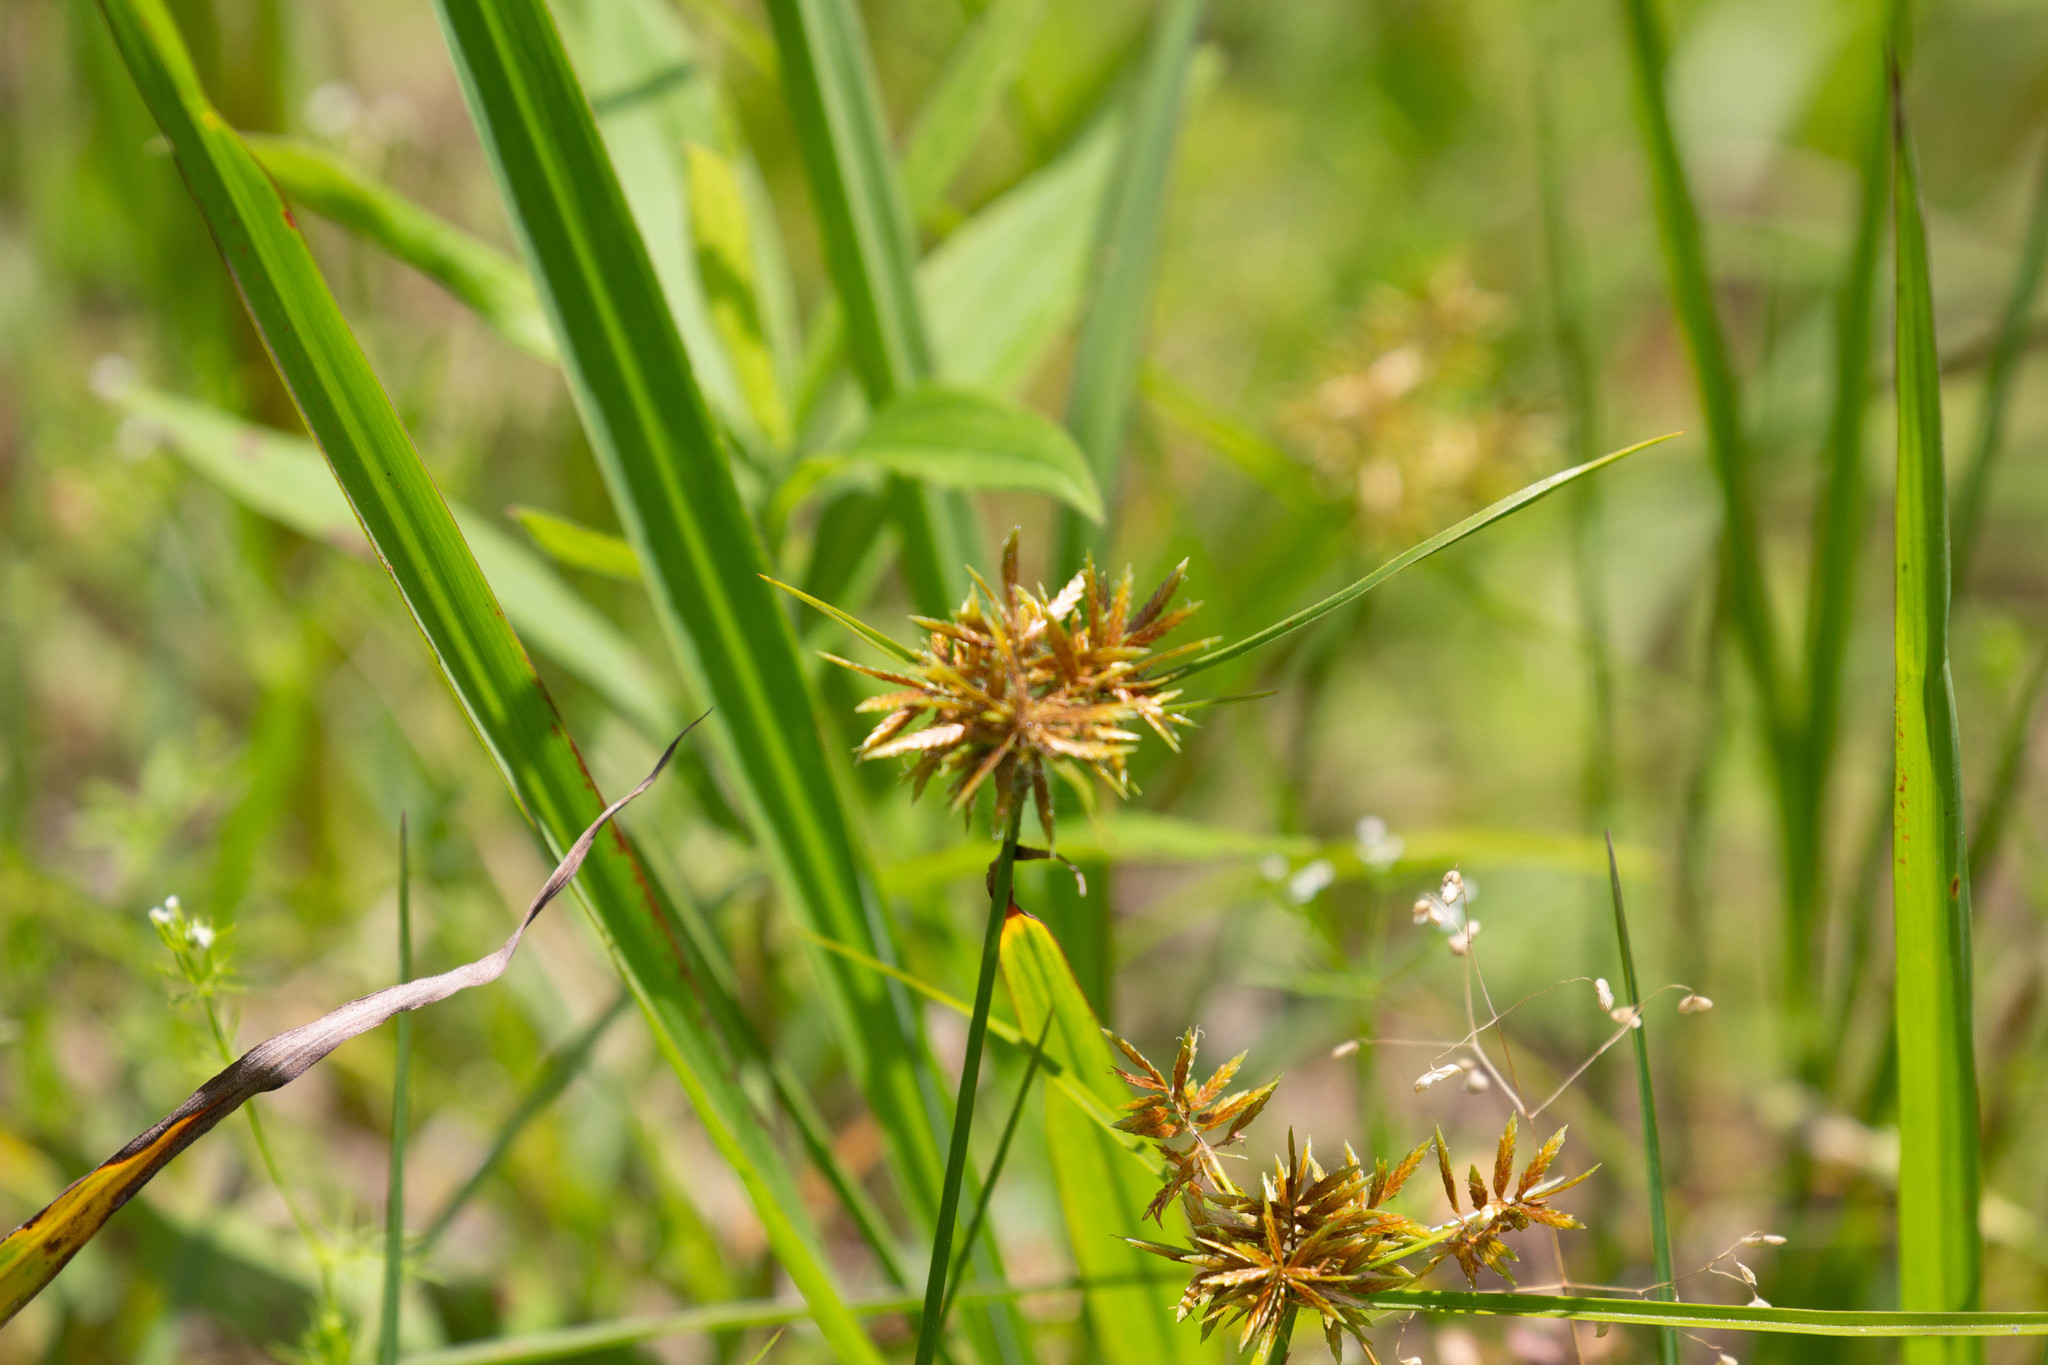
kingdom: Plantae
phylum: Tracheophyta
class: Liliopsida
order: Poales
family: Cyperaceae
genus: Cyperus
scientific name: Cyperus polystachyos
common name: Bunchy flat sedge
